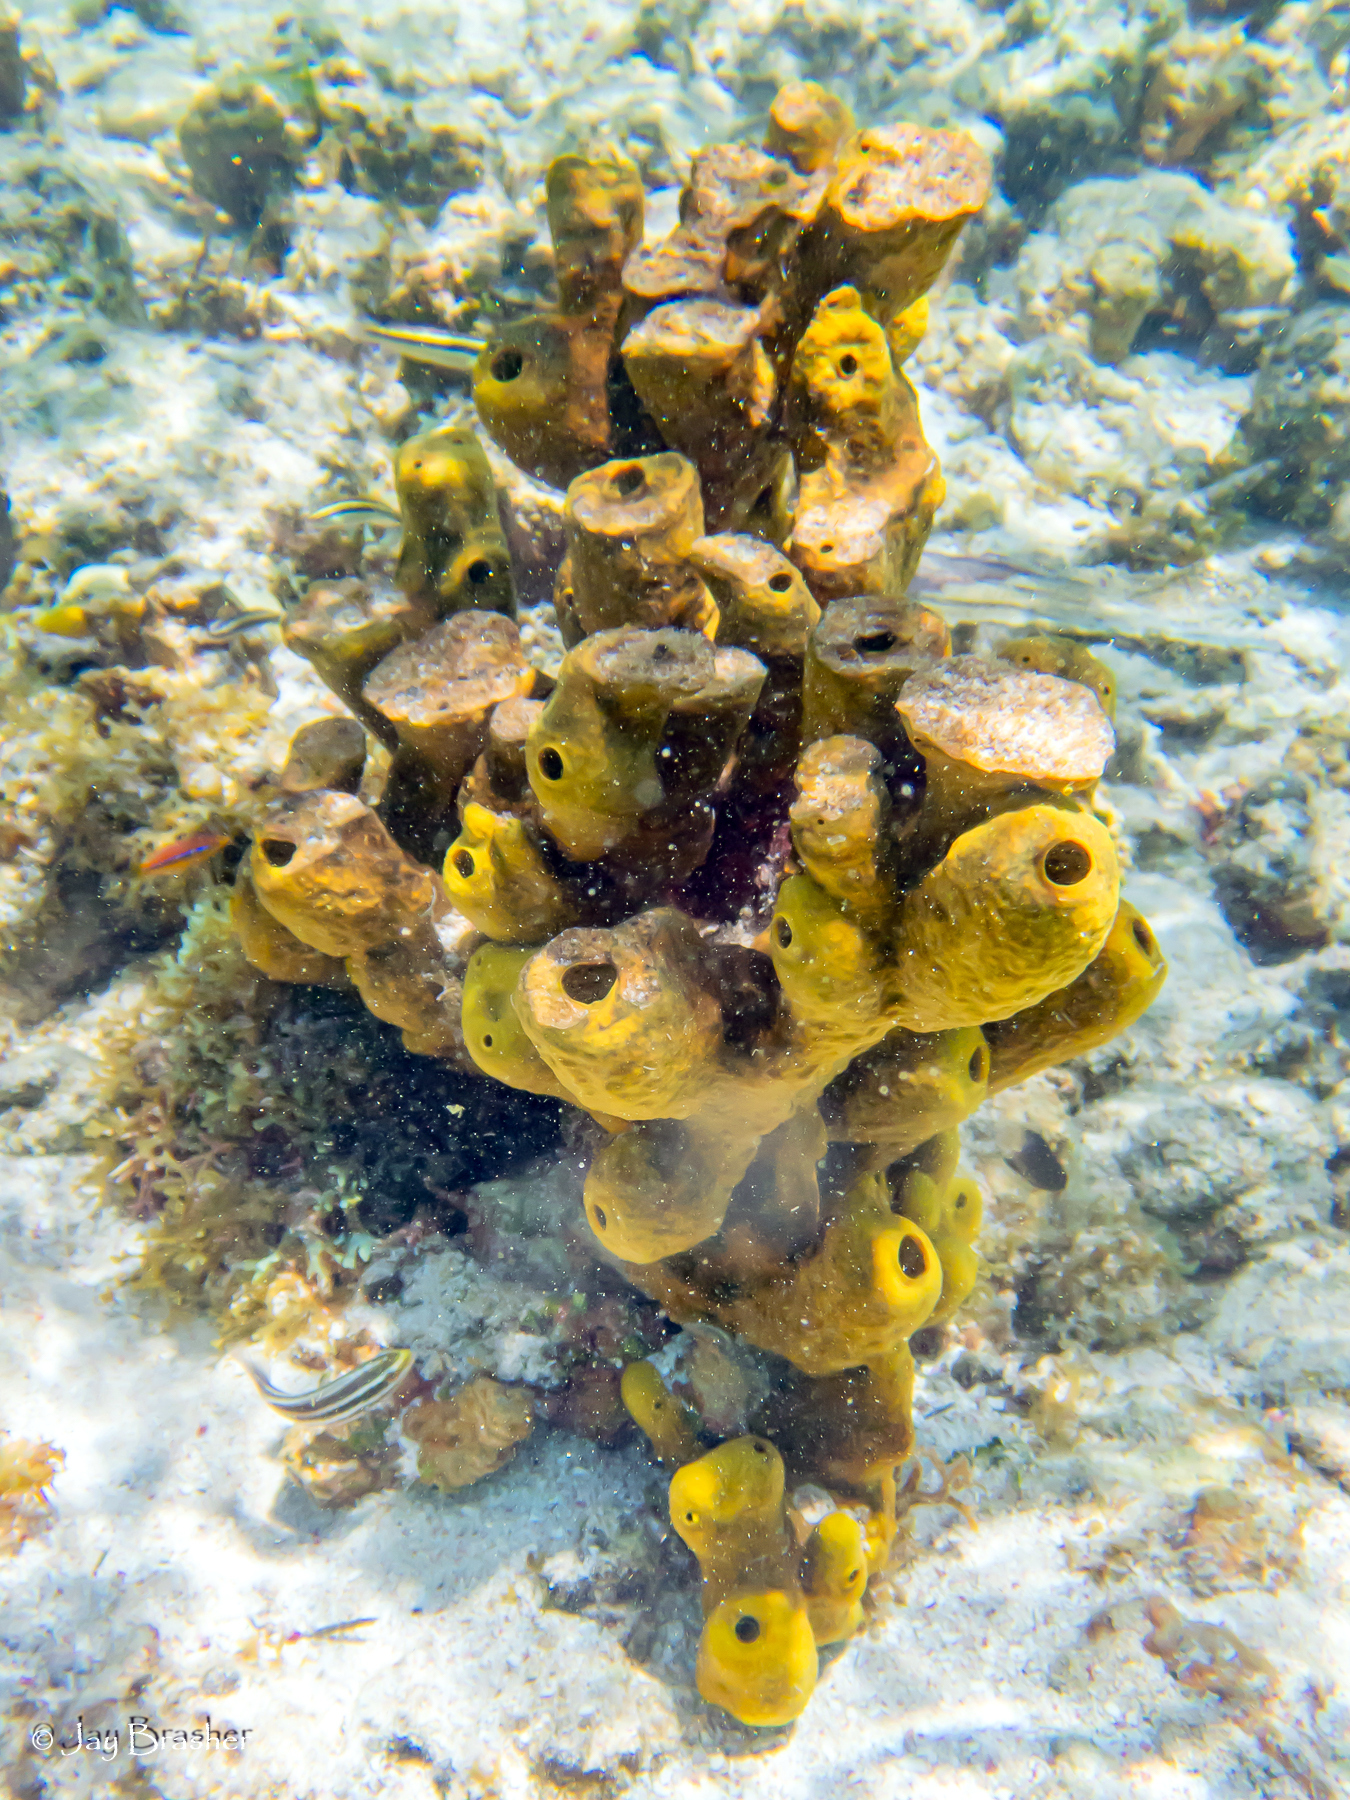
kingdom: Animalia
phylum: Porifera
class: Demospongiae
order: Verongiida
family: Aplysinidae
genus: Aplysina
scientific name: Aplysina fistularis
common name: Candle sponge
